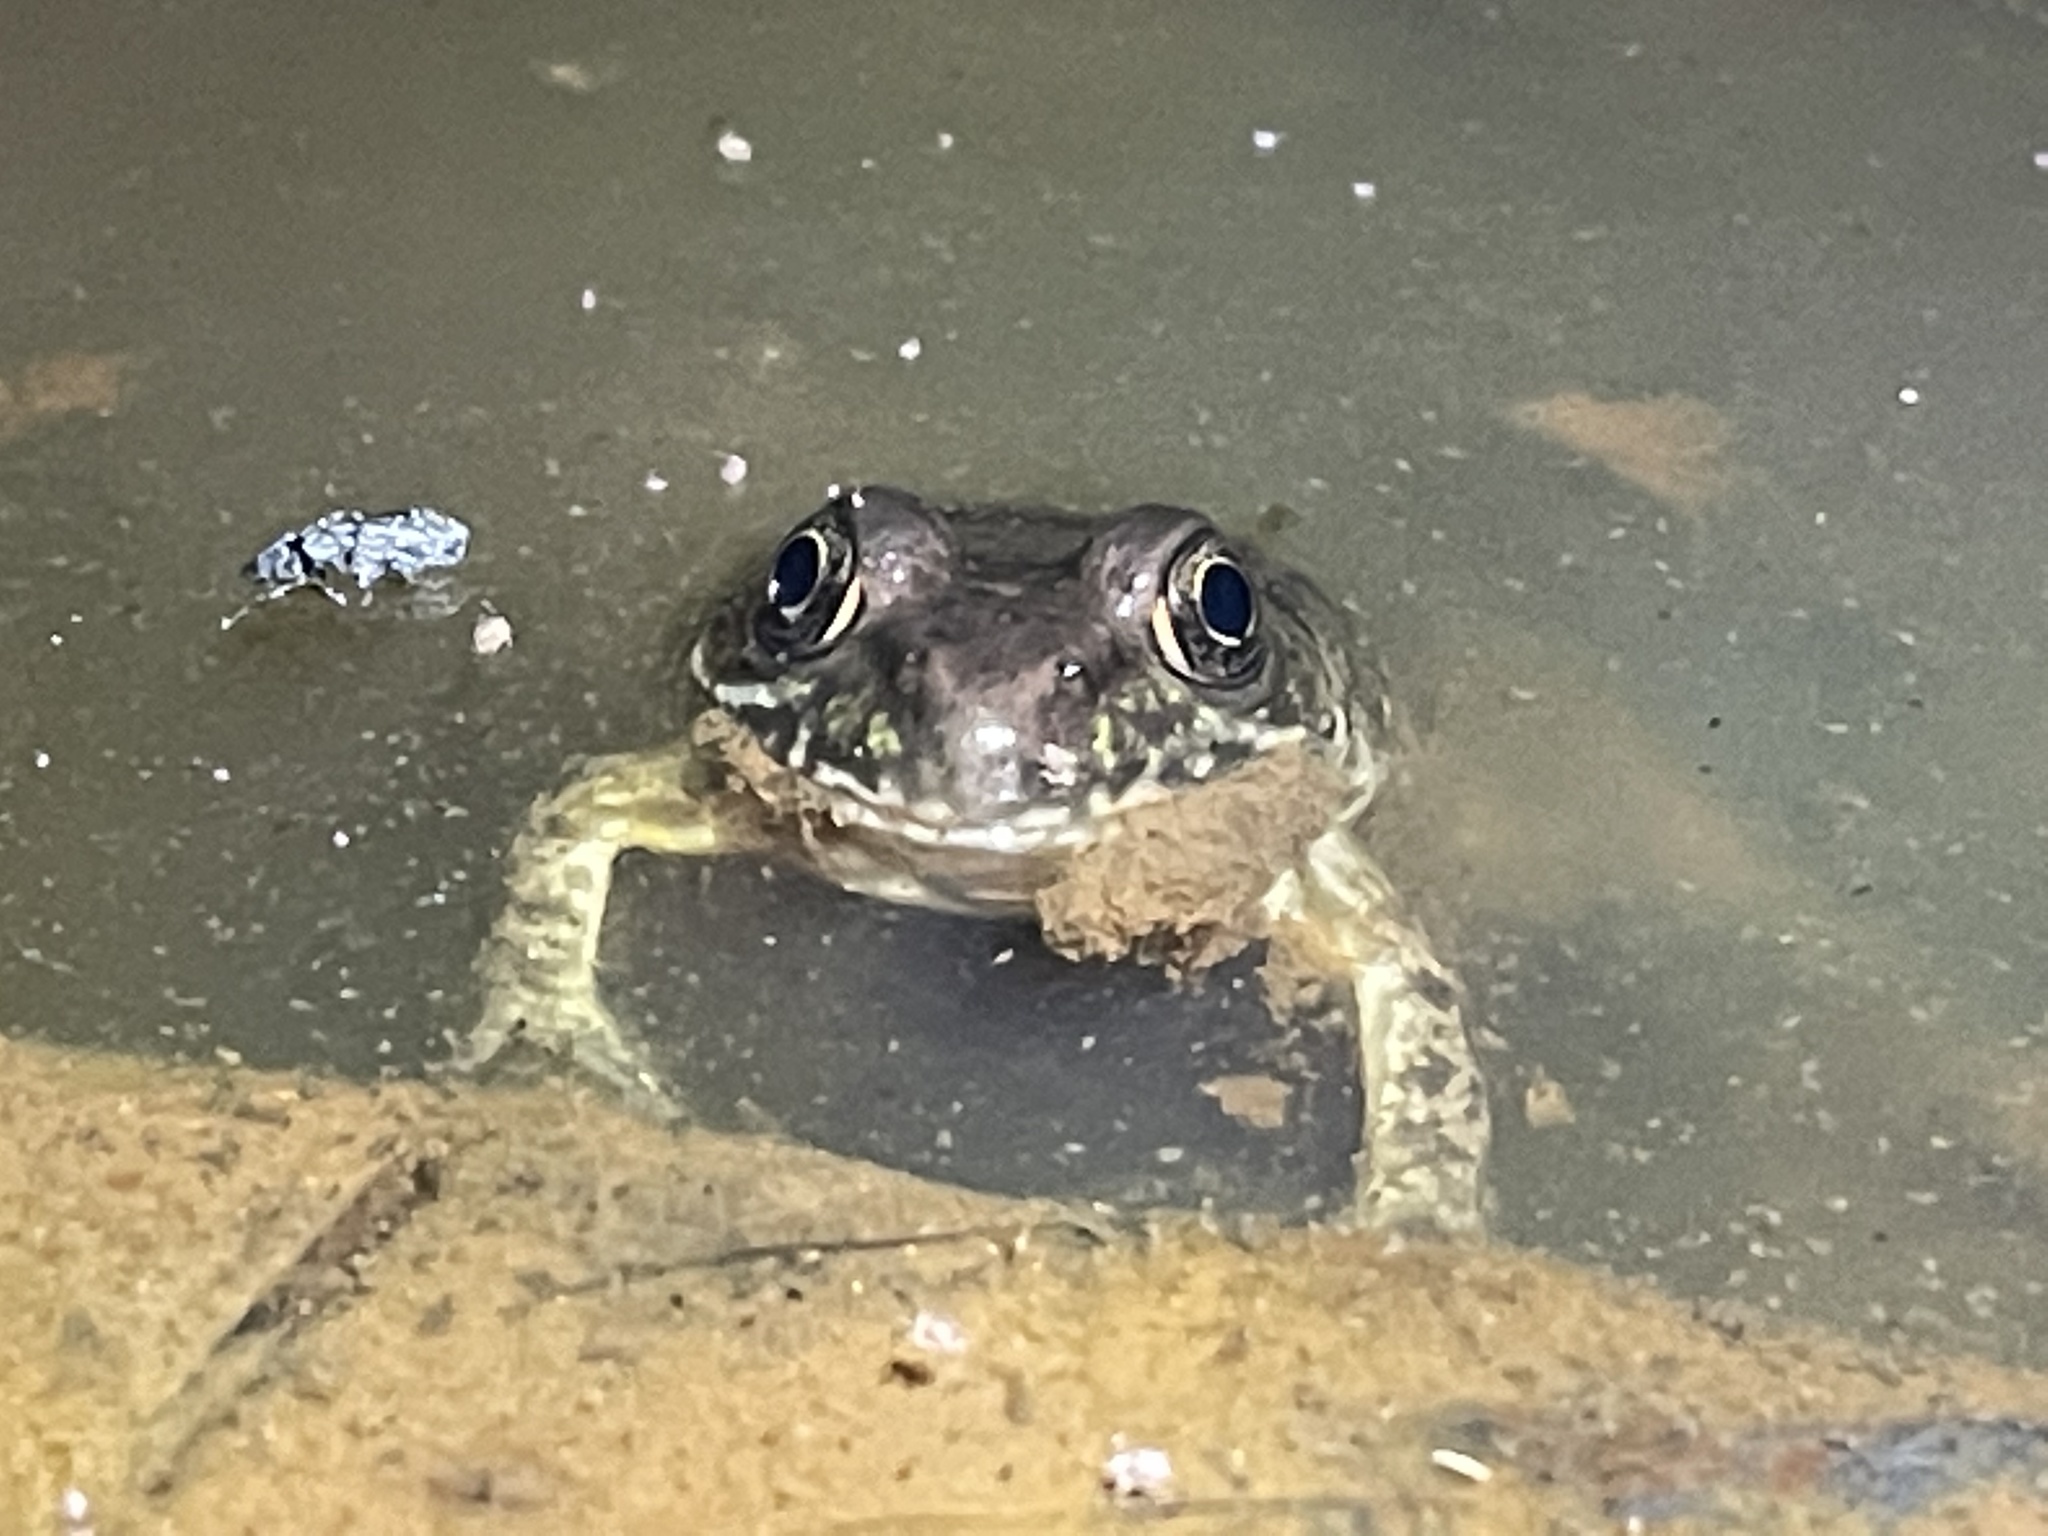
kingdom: Animalia
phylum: Chordata
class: Amphibia
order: Anura
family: Ranidae
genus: Lithobates
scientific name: Lithobates clamitans
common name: Green frog
